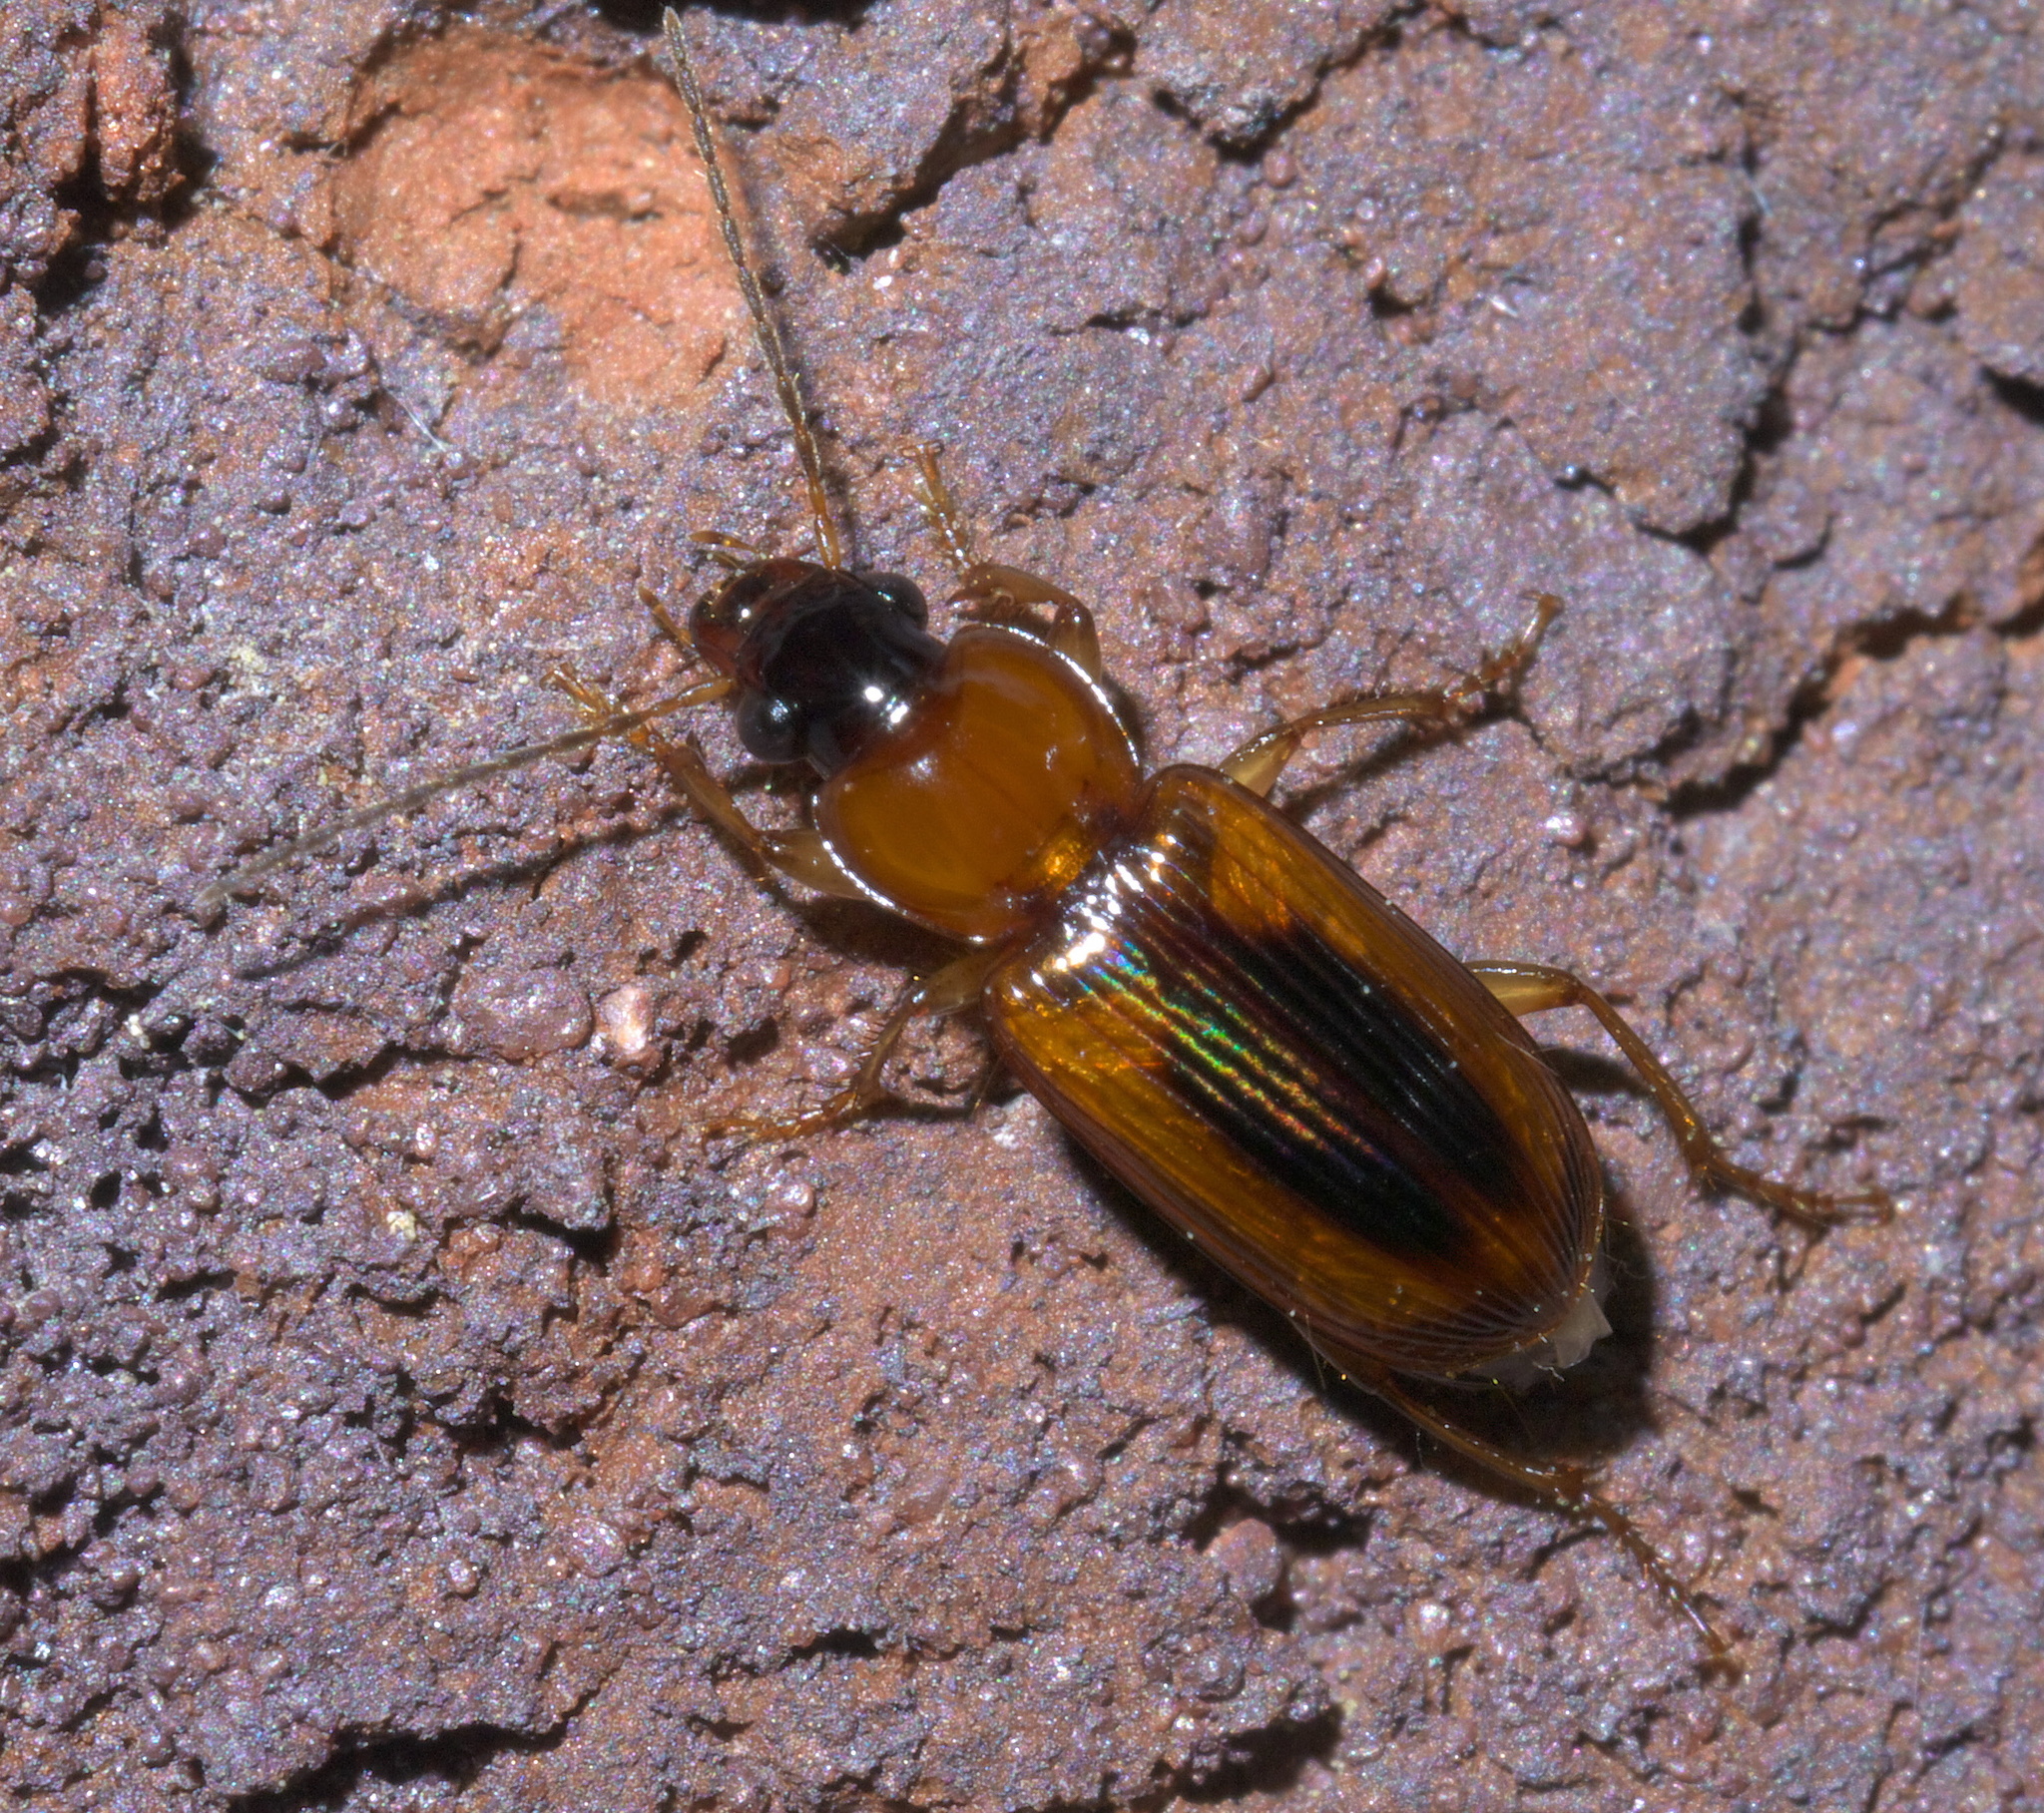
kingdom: Animalia
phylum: Arthropoda
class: Insecta
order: Coleoptera
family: Carabidae
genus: Stenolophus
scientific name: Stenolophus dissimilis
